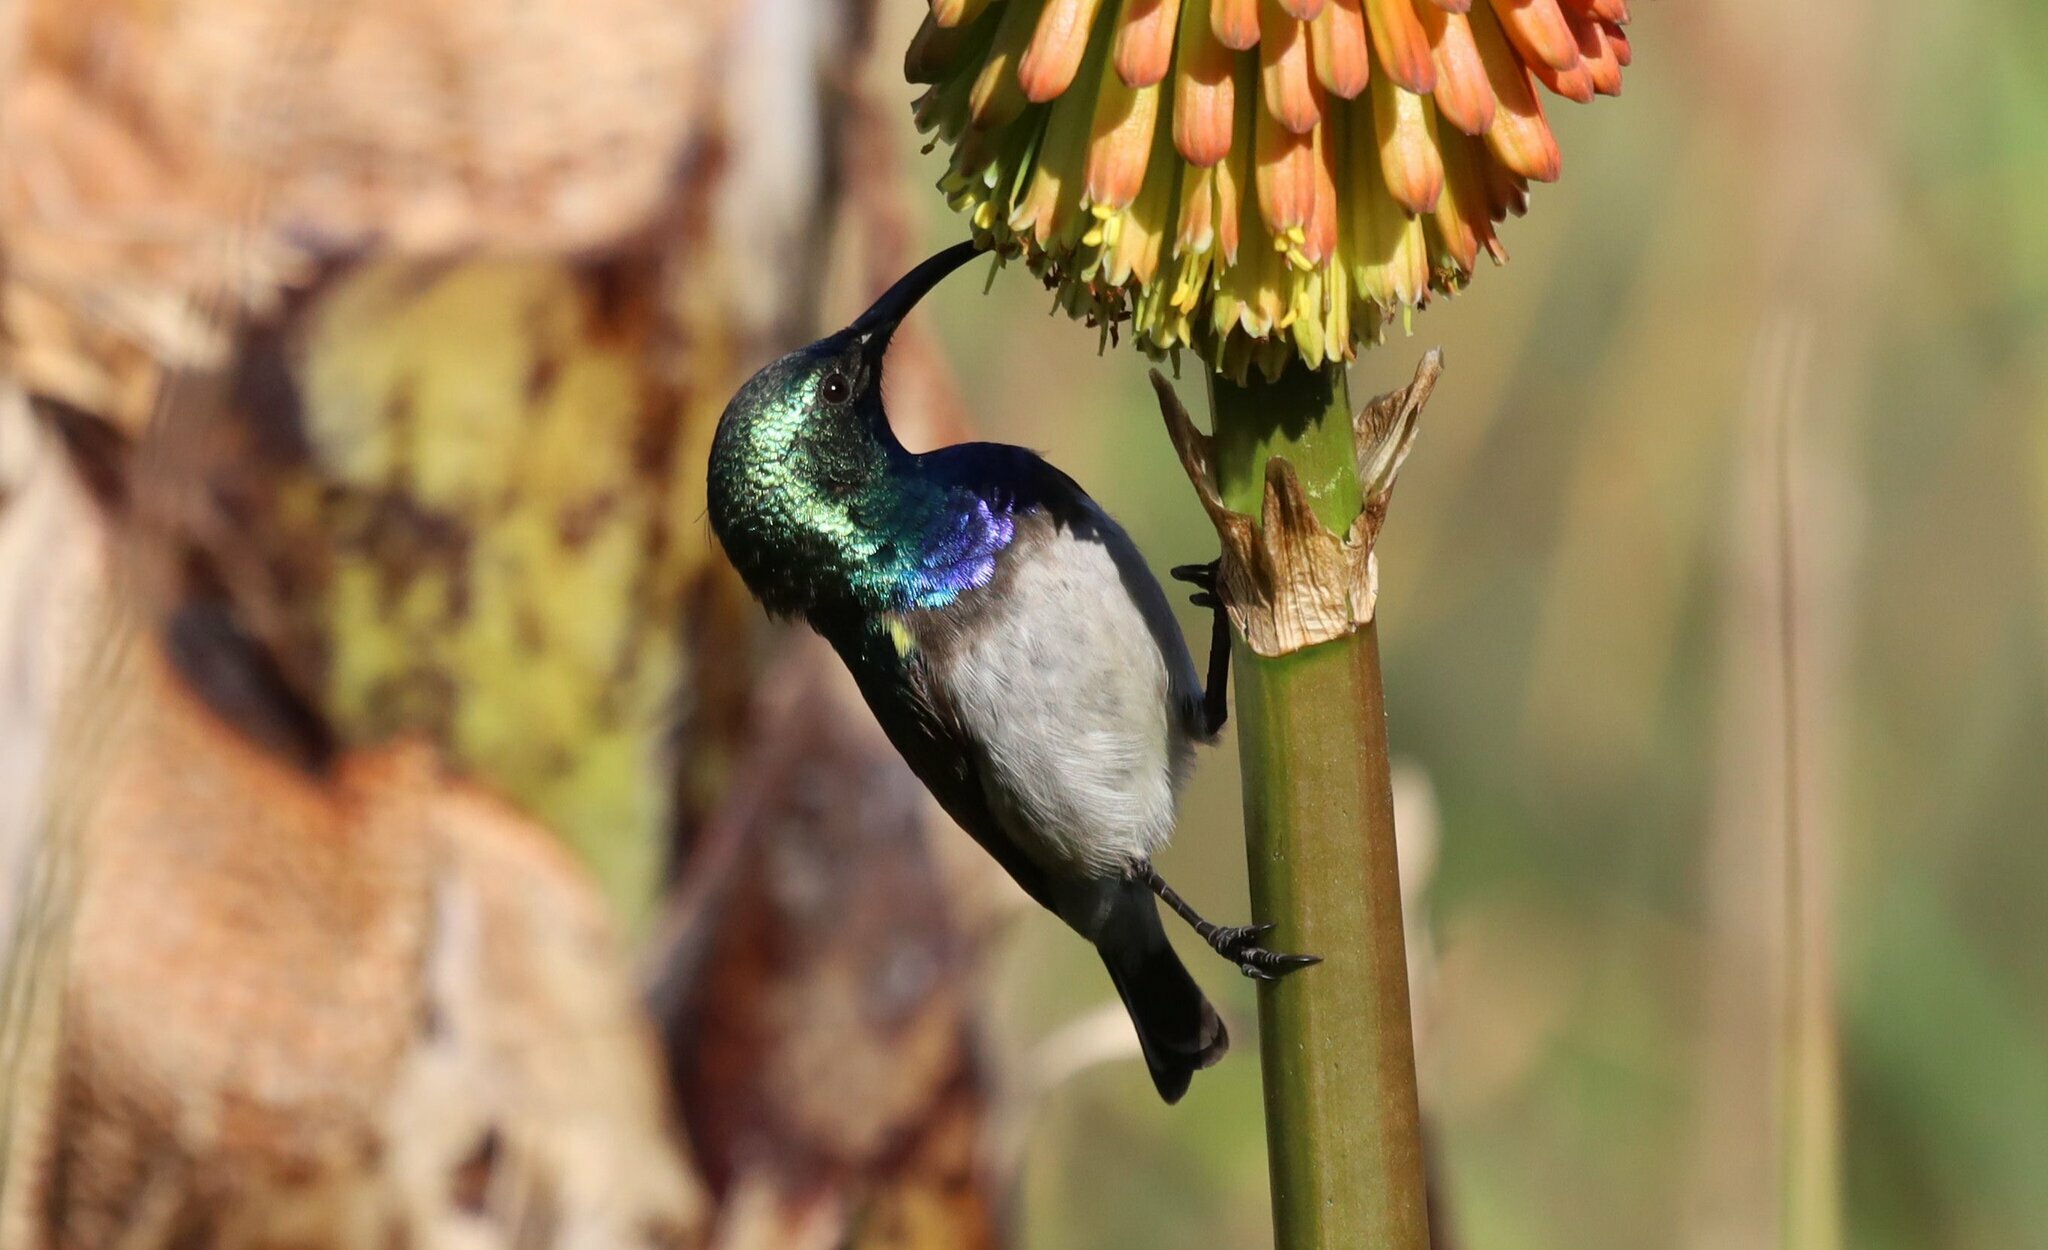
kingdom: Animalia
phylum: Chordata
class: Aves
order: Passeriformes
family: Nectariniidae
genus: Cinnyris
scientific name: Cinnyris talatala
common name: White-bellied sunbird
